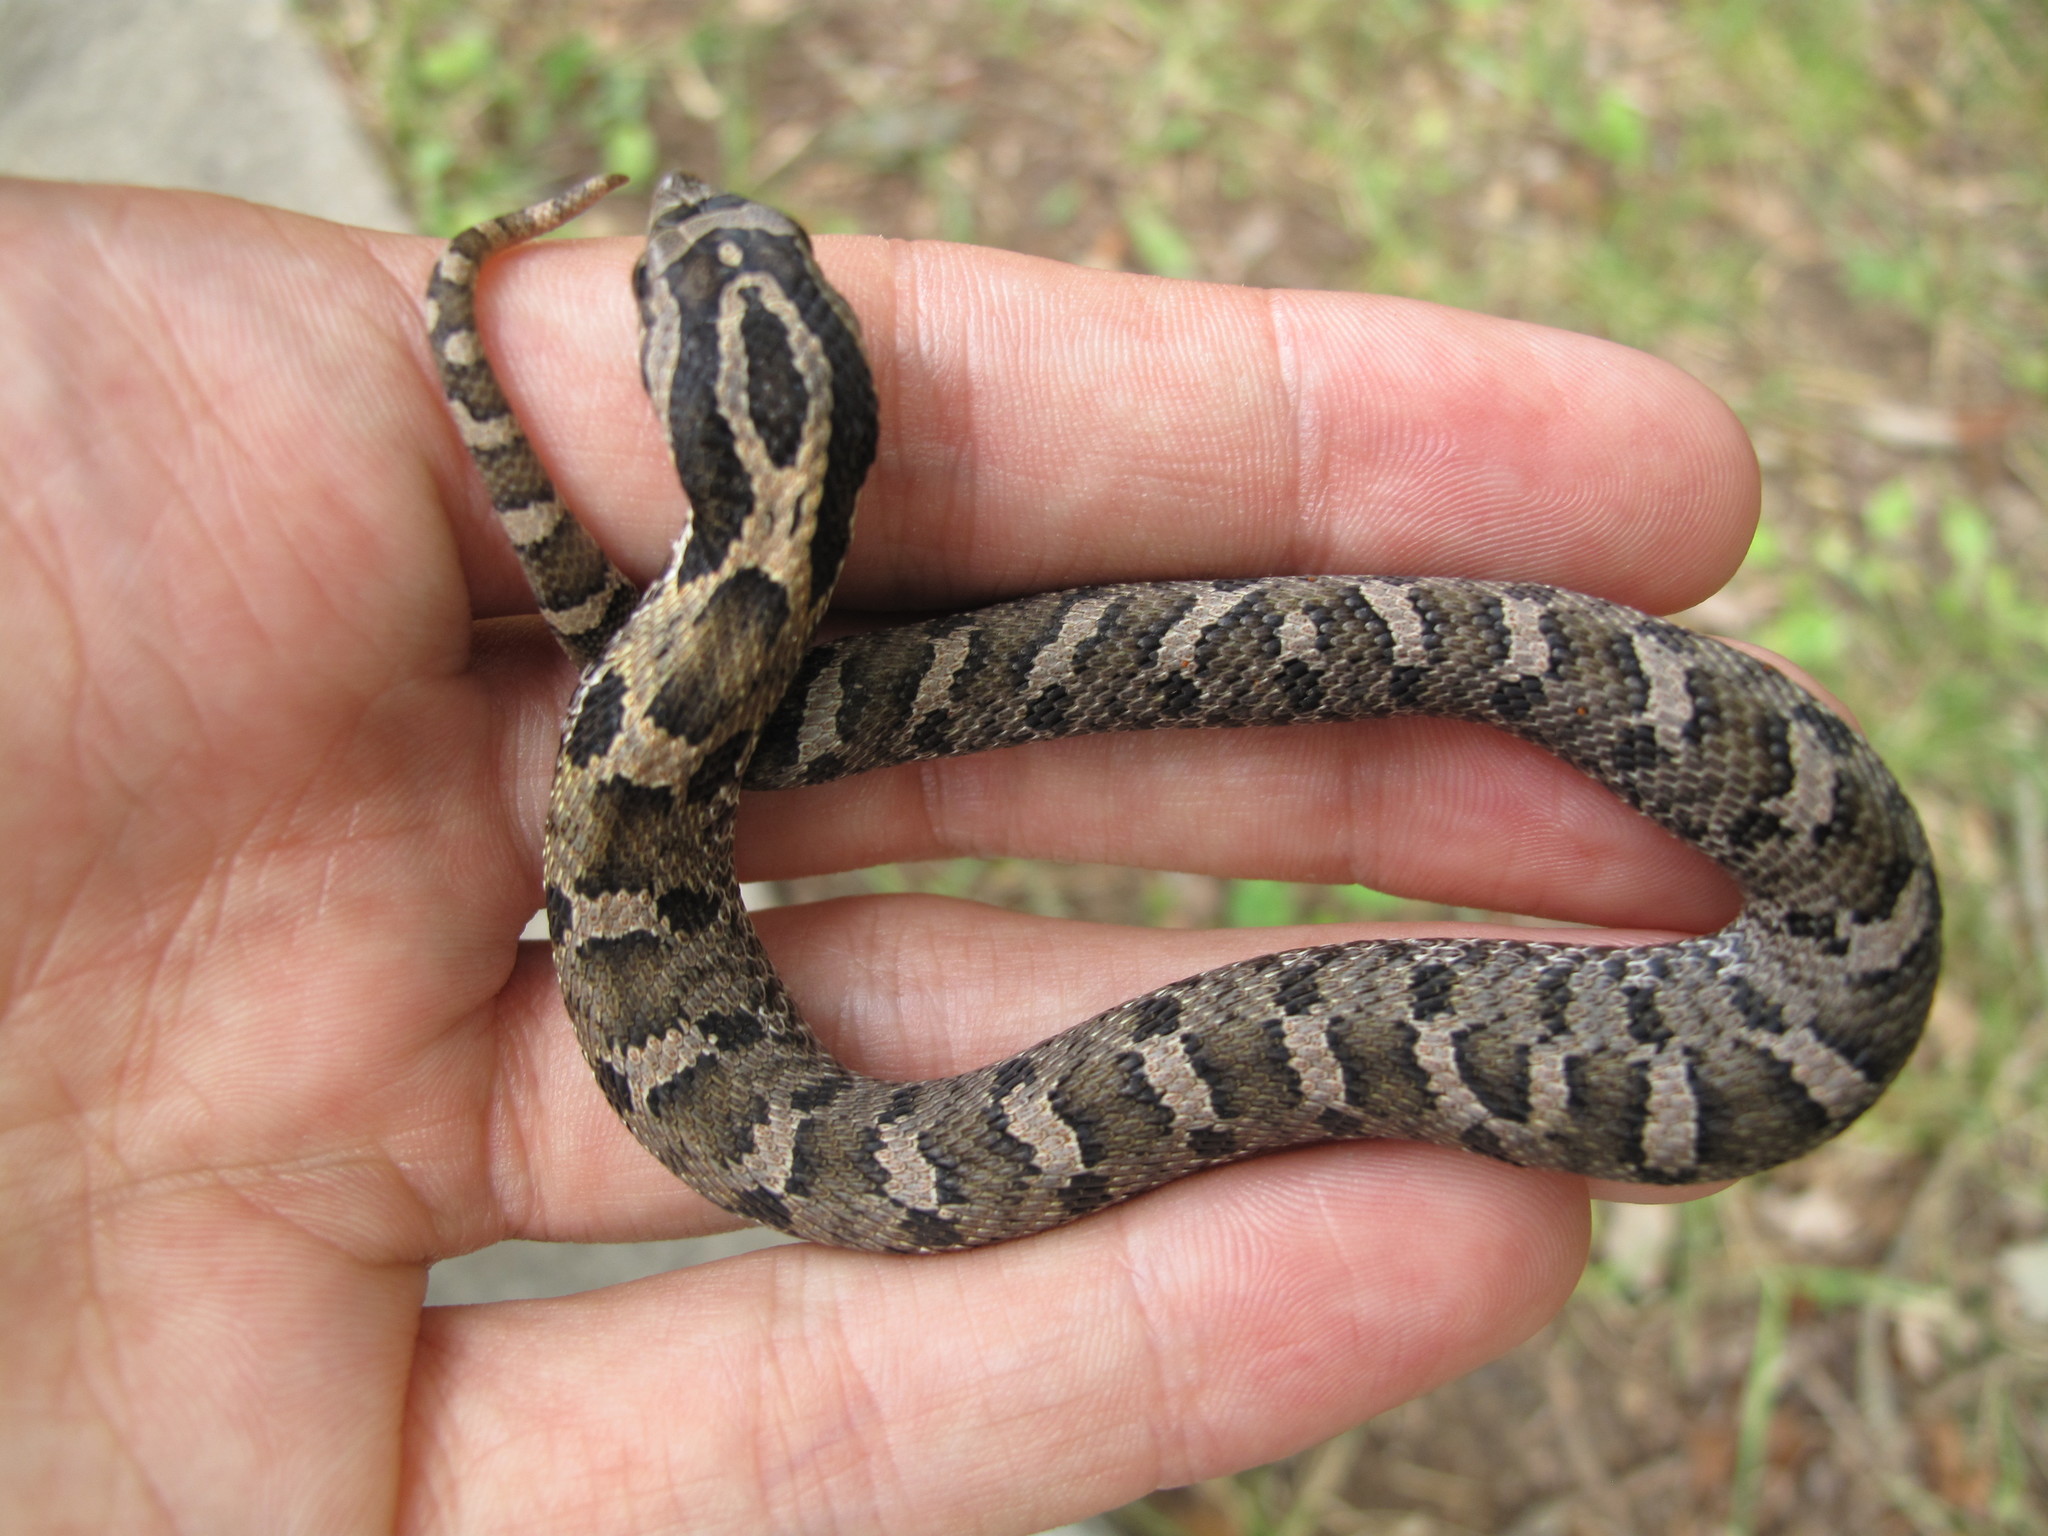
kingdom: Animalia
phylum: Chordata
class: Squamata
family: Colubridae
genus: Heterodon
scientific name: Heterodon platirhinos
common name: Eastern hognose snake
